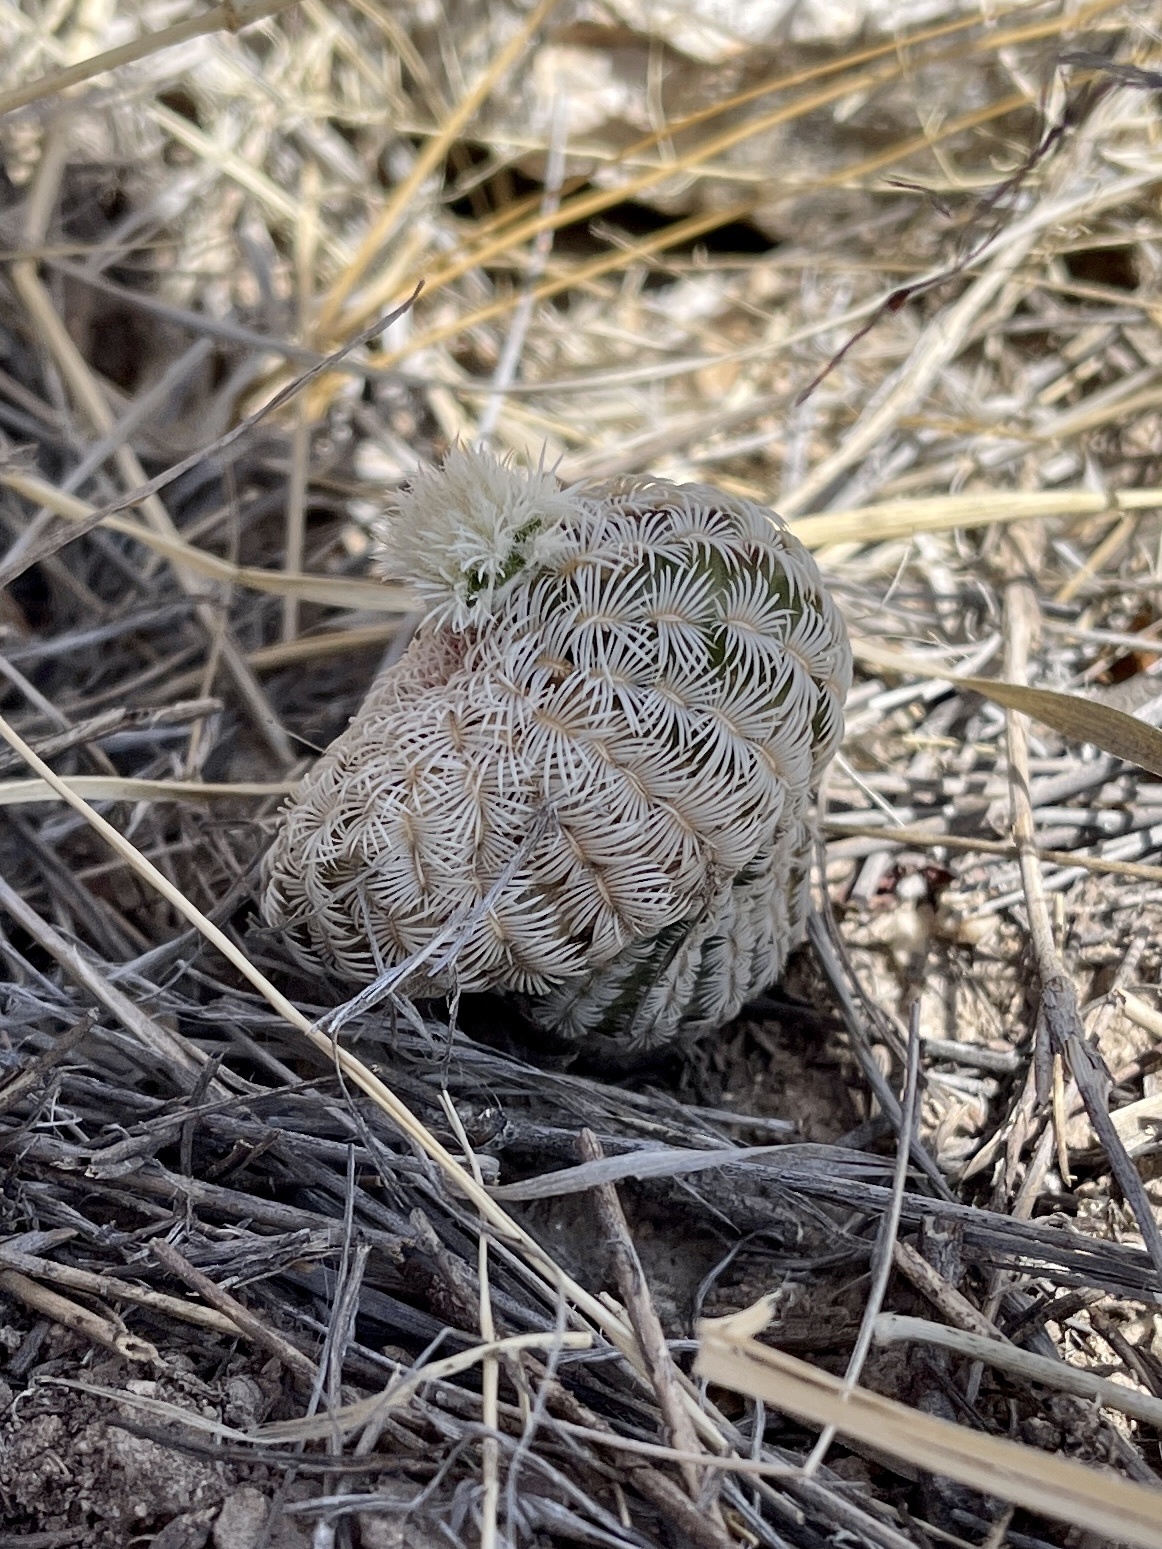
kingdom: Plantae
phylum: Tracheophyta
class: Magnoliopsida
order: Caryophyllales
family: Cactaceae
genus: Echinocereus
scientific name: Echinocereus rigidissimus
